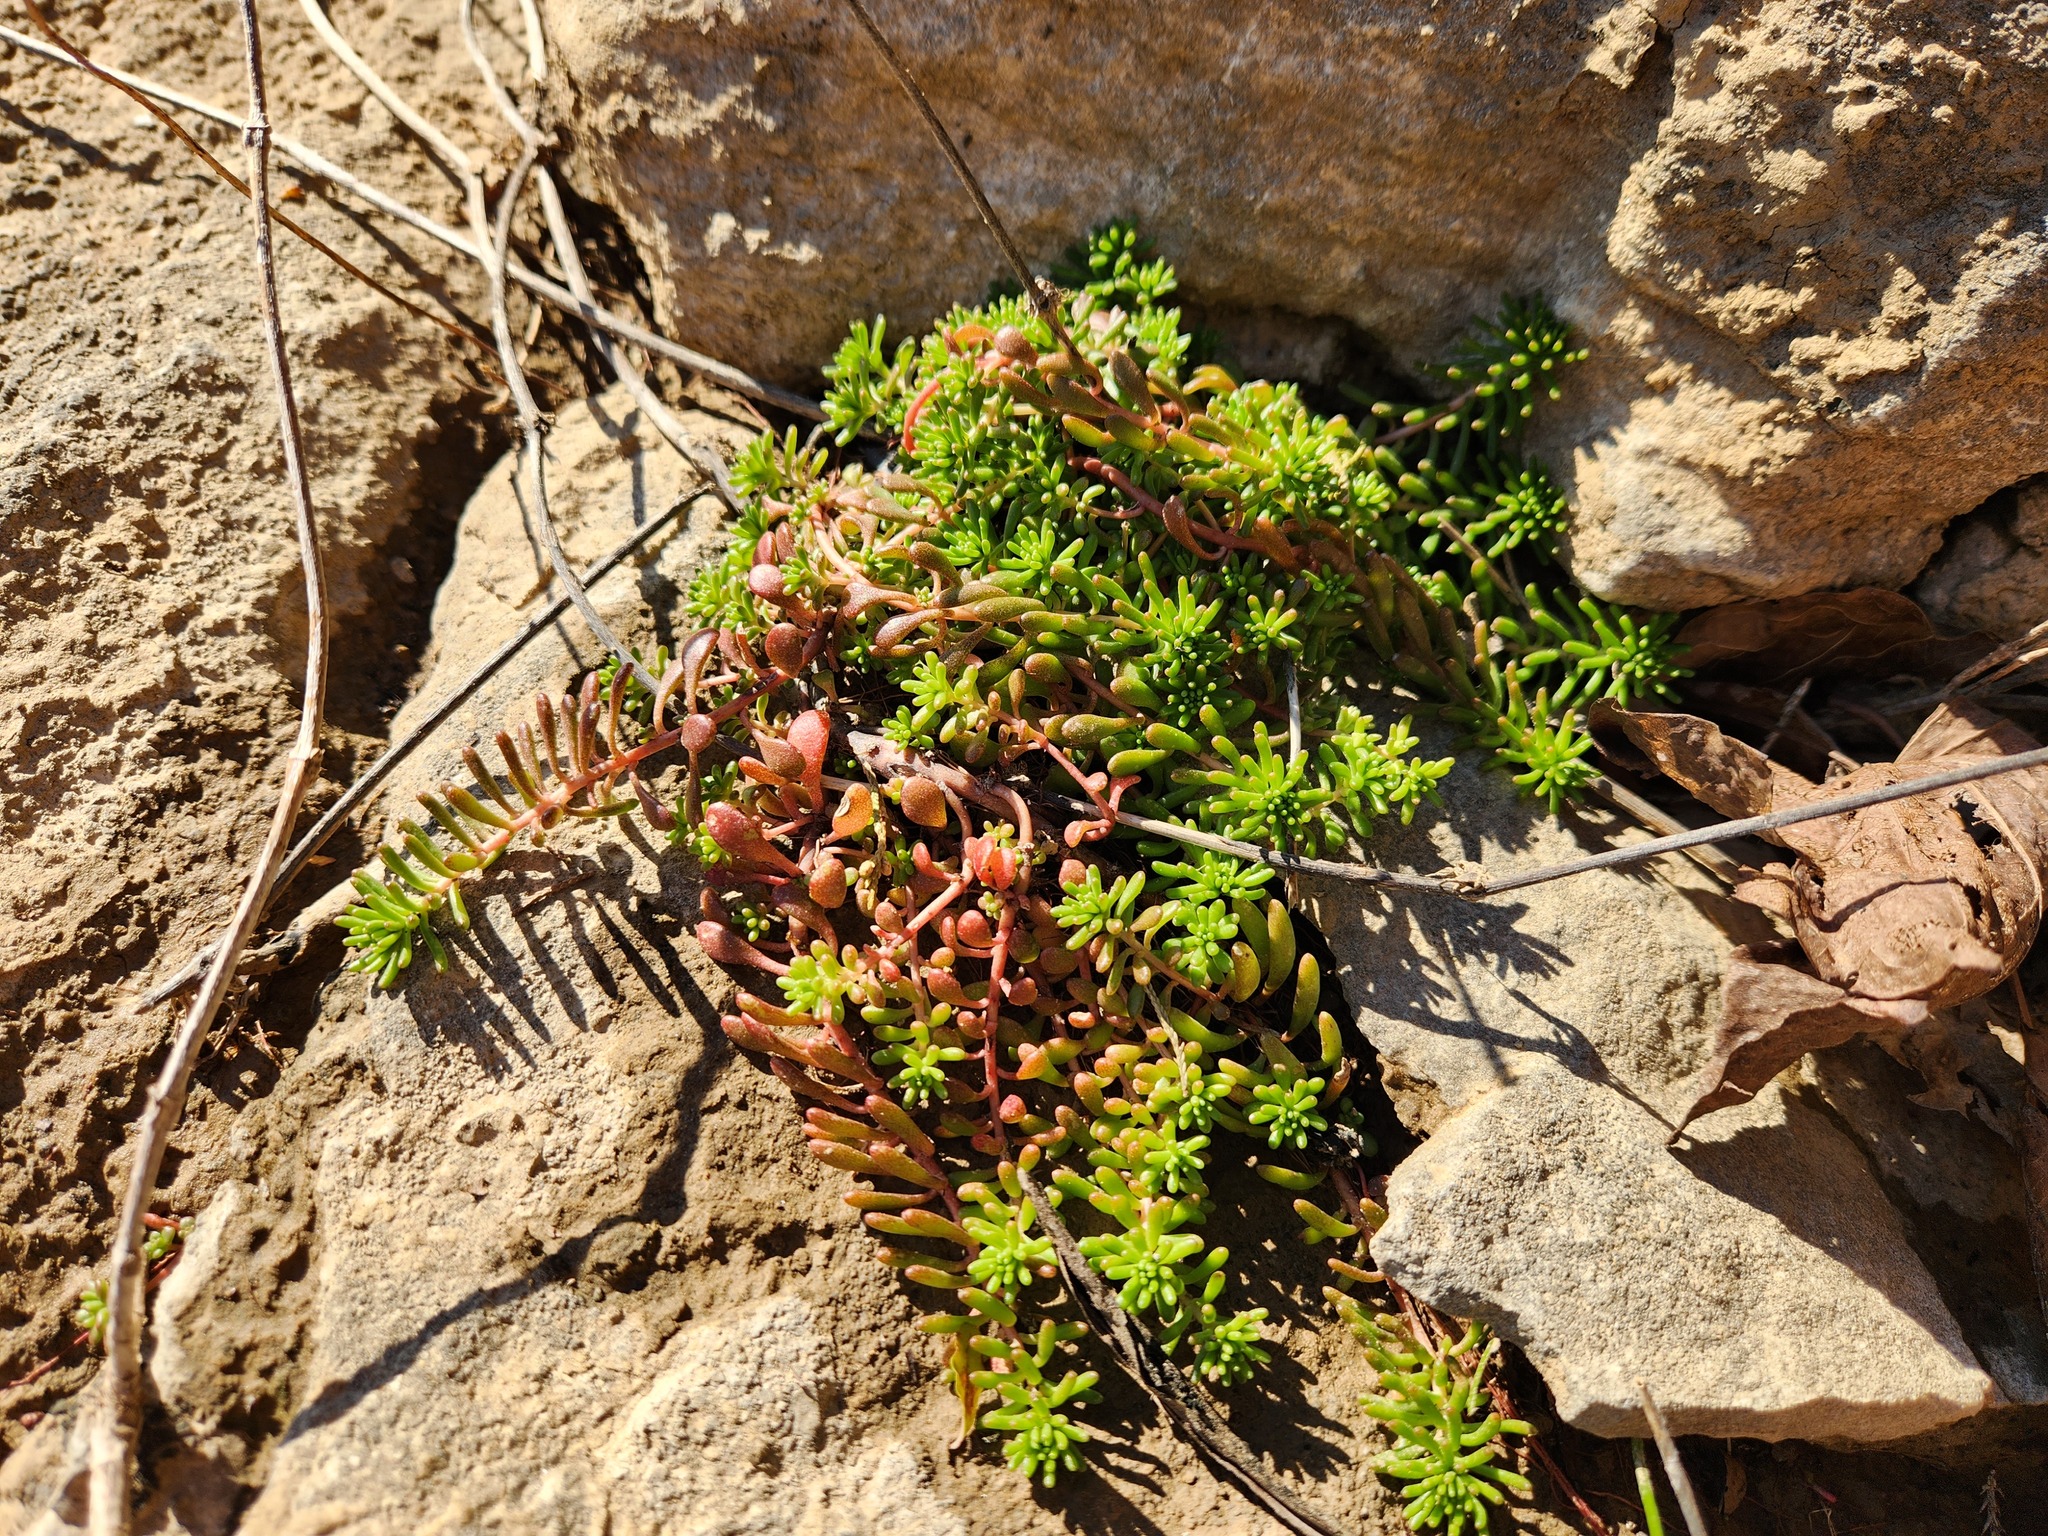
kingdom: Plantae
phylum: Tracheophyta
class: Magnoliopsida
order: Saxifragales
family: Crassulaceae
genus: Sedum
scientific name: Sedum pulchellum
